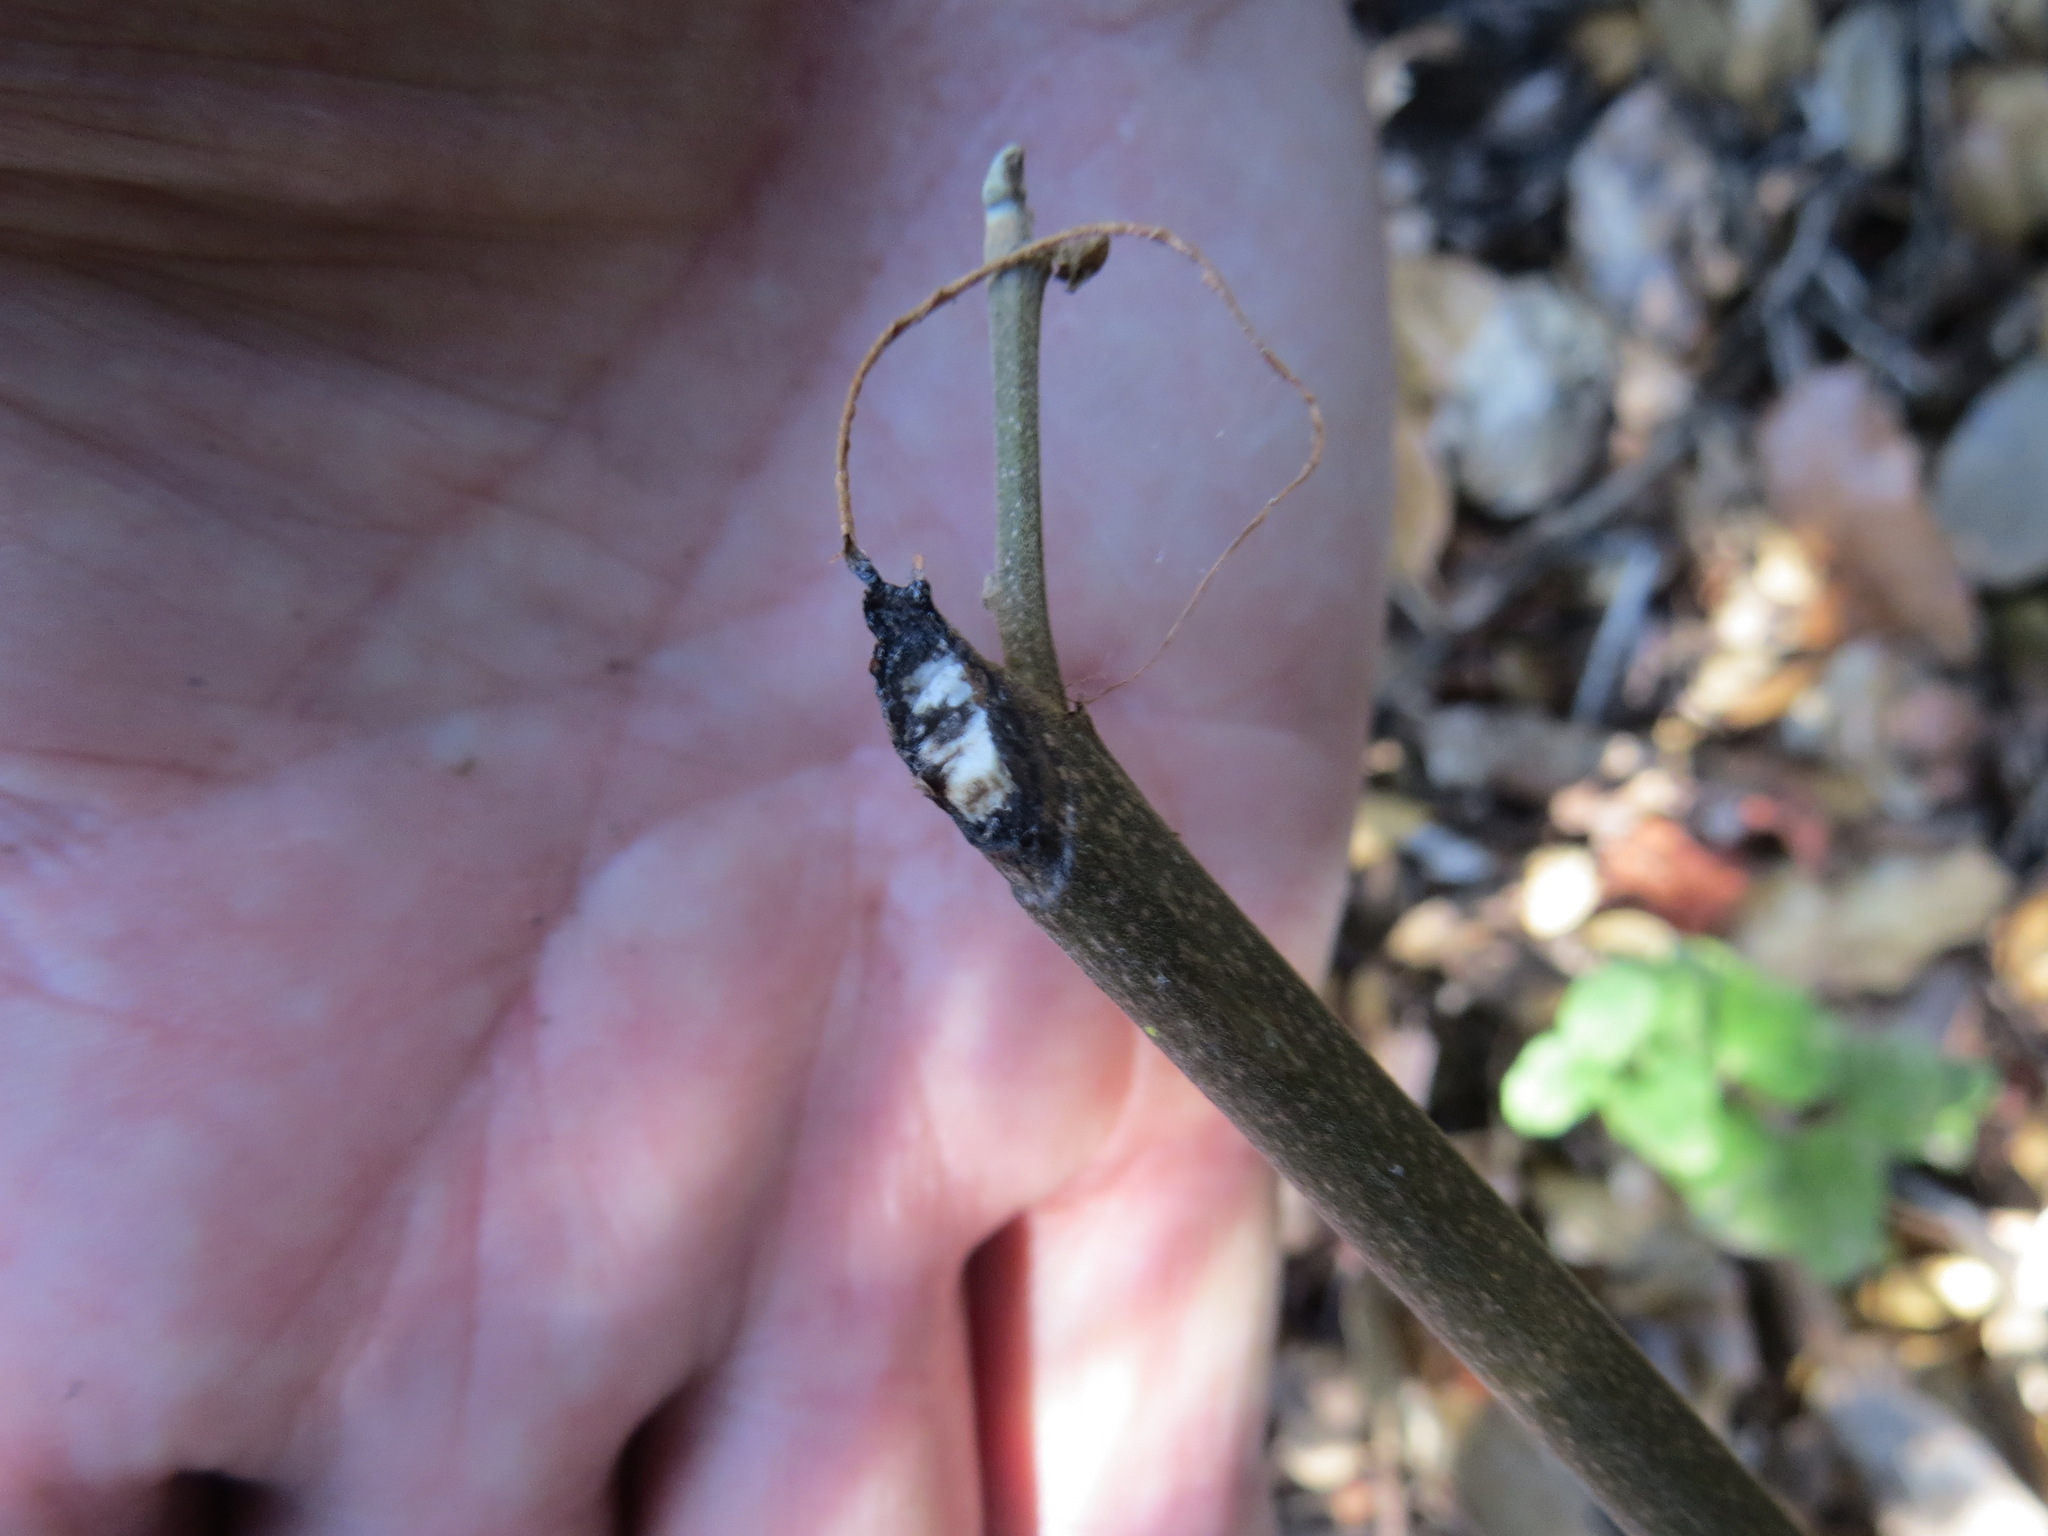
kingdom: Animalia
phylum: Chordata
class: Mammalia
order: Rodentia
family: Cricetidae
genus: Neotoma
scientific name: Neotoma fuscipes
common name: Dusky-footed woodrat
